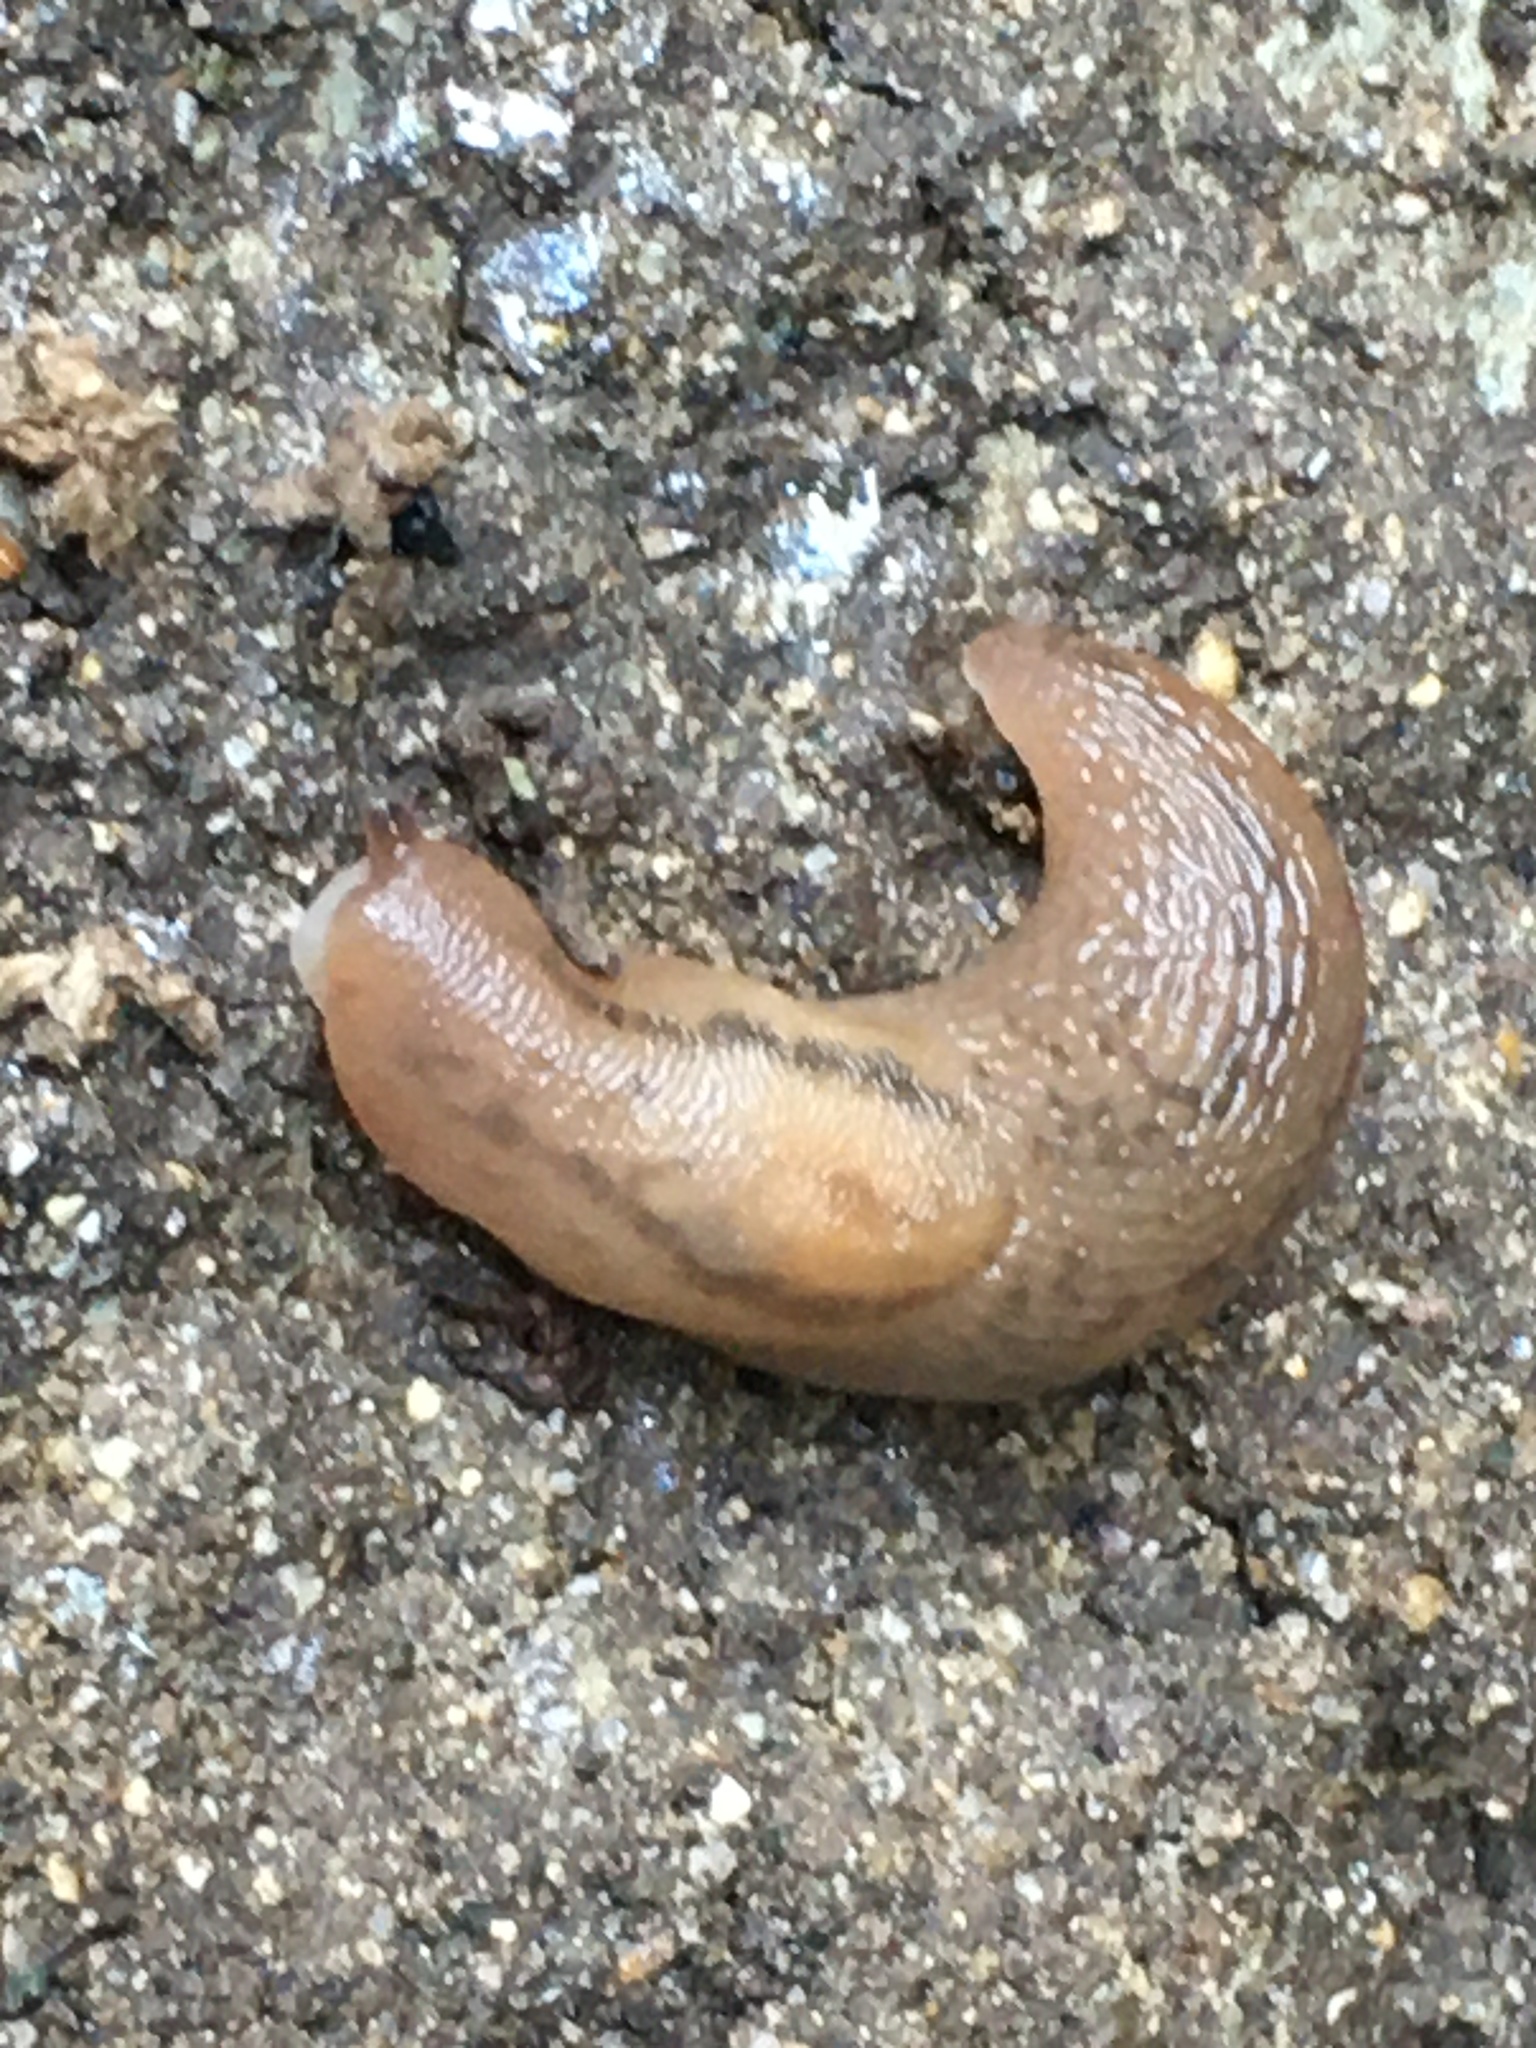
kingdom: Animalia
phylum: Mollusca
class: Gastropoda
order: Stylommatophora
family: Limacidae
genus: Ambigolimax
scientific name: Ambigolimax
